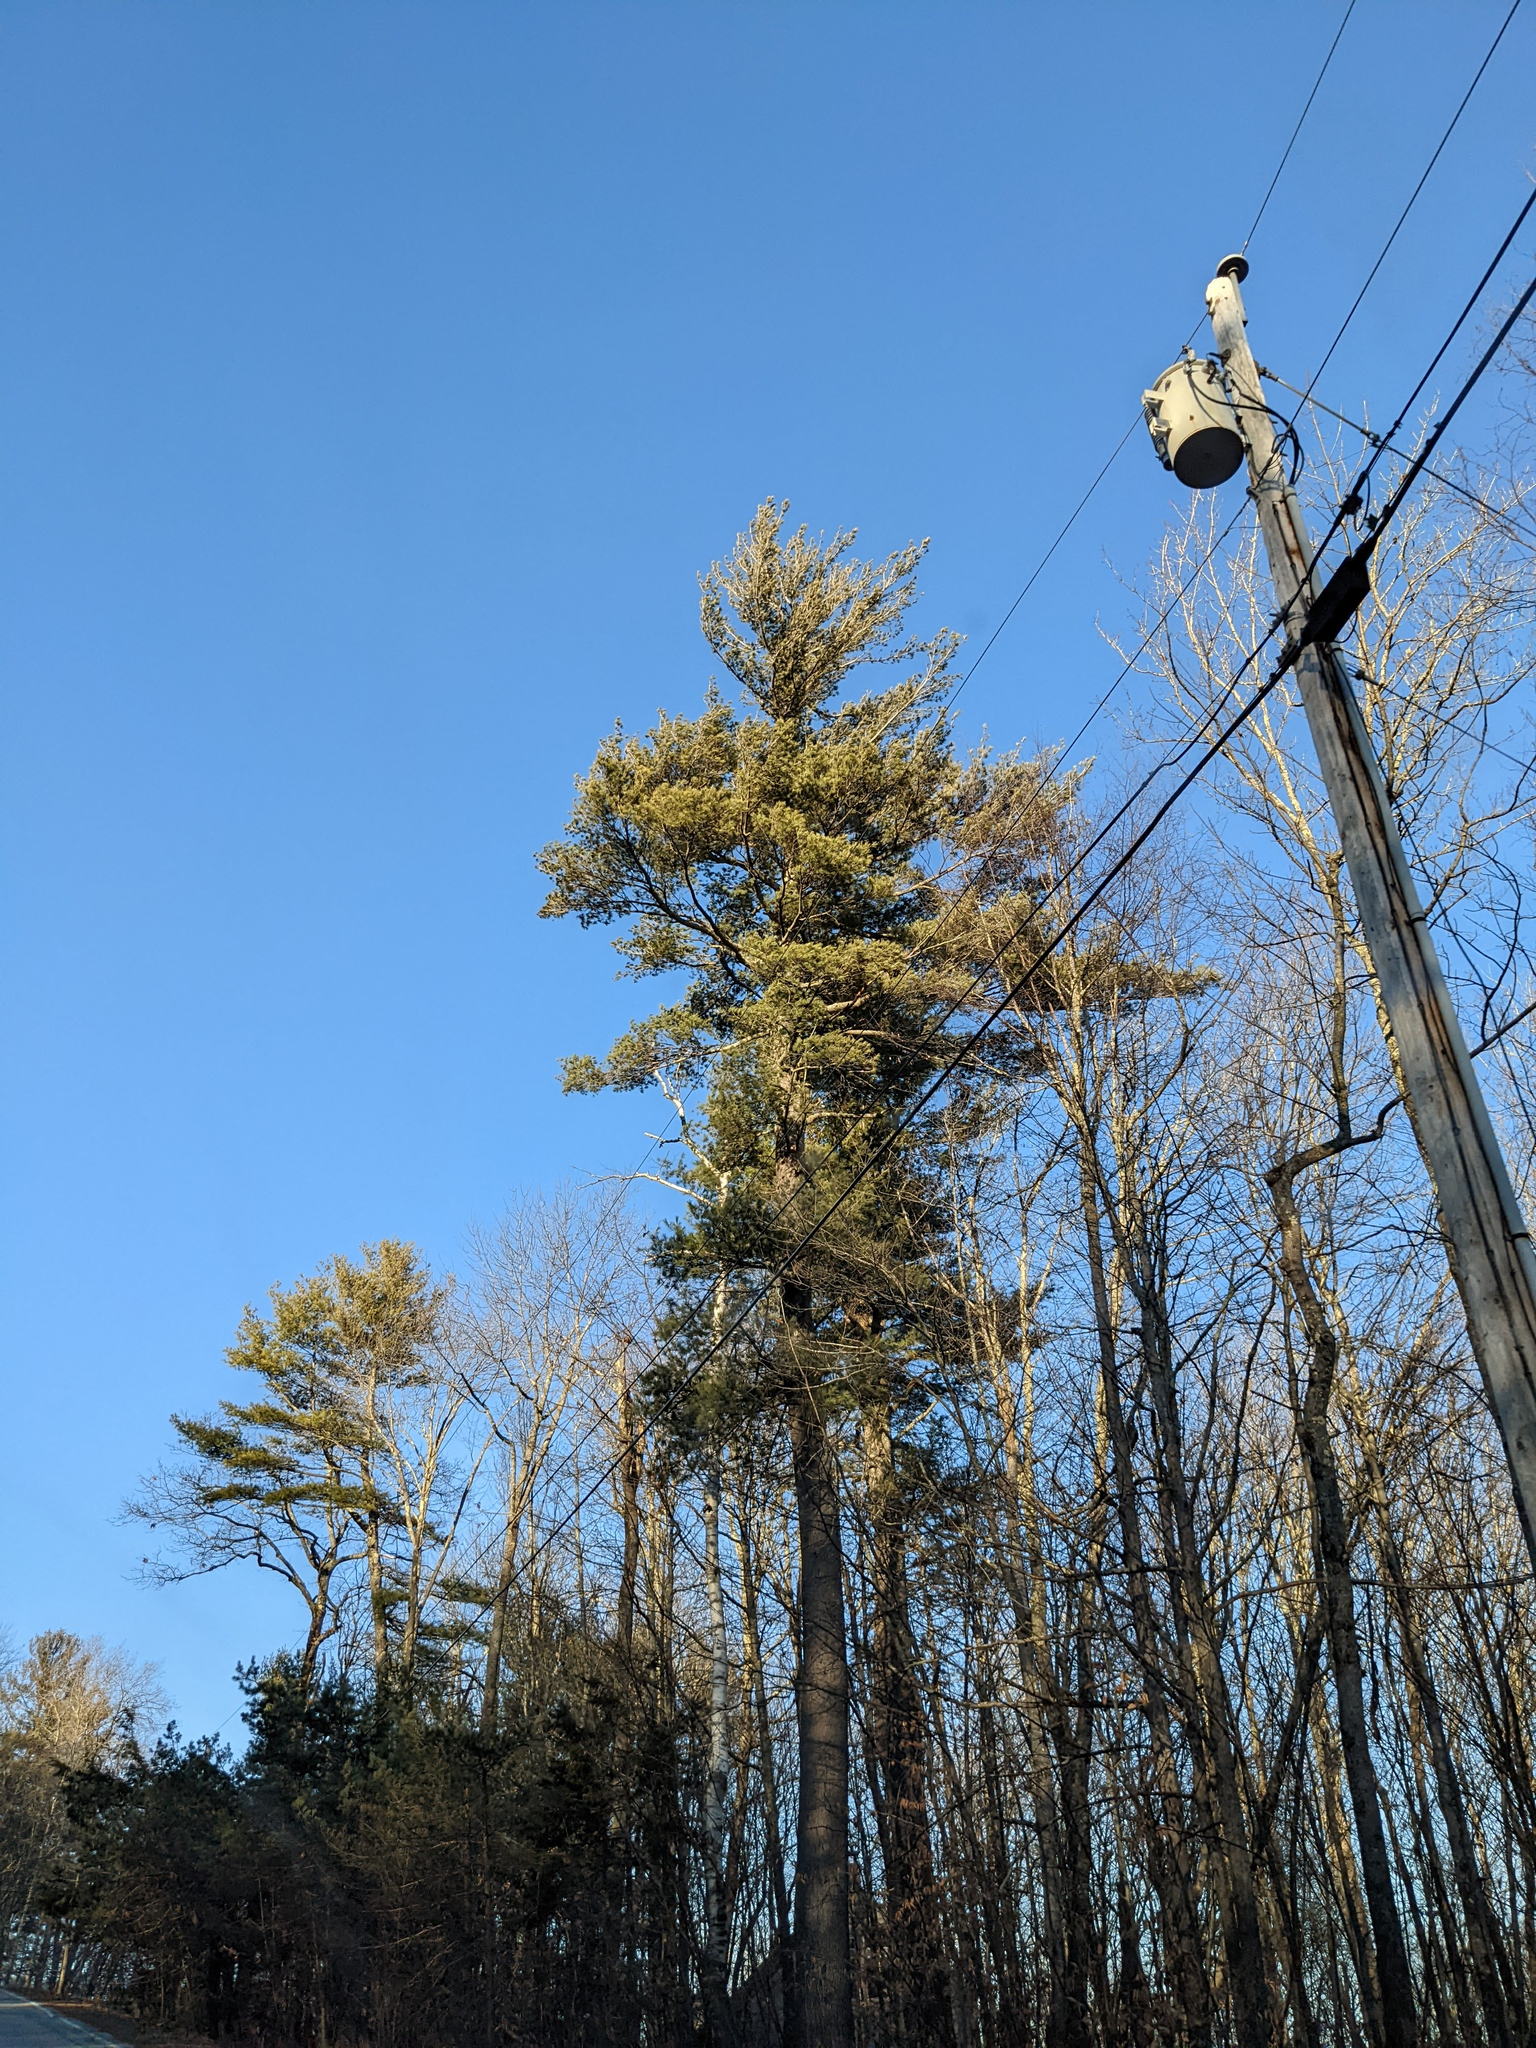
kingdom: Plantae
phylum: Tracheophyta
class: Pinopsida
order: Pinales
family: Pinaceae
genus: Pinus
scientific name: Pinus strobus
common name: Weymouth pine
